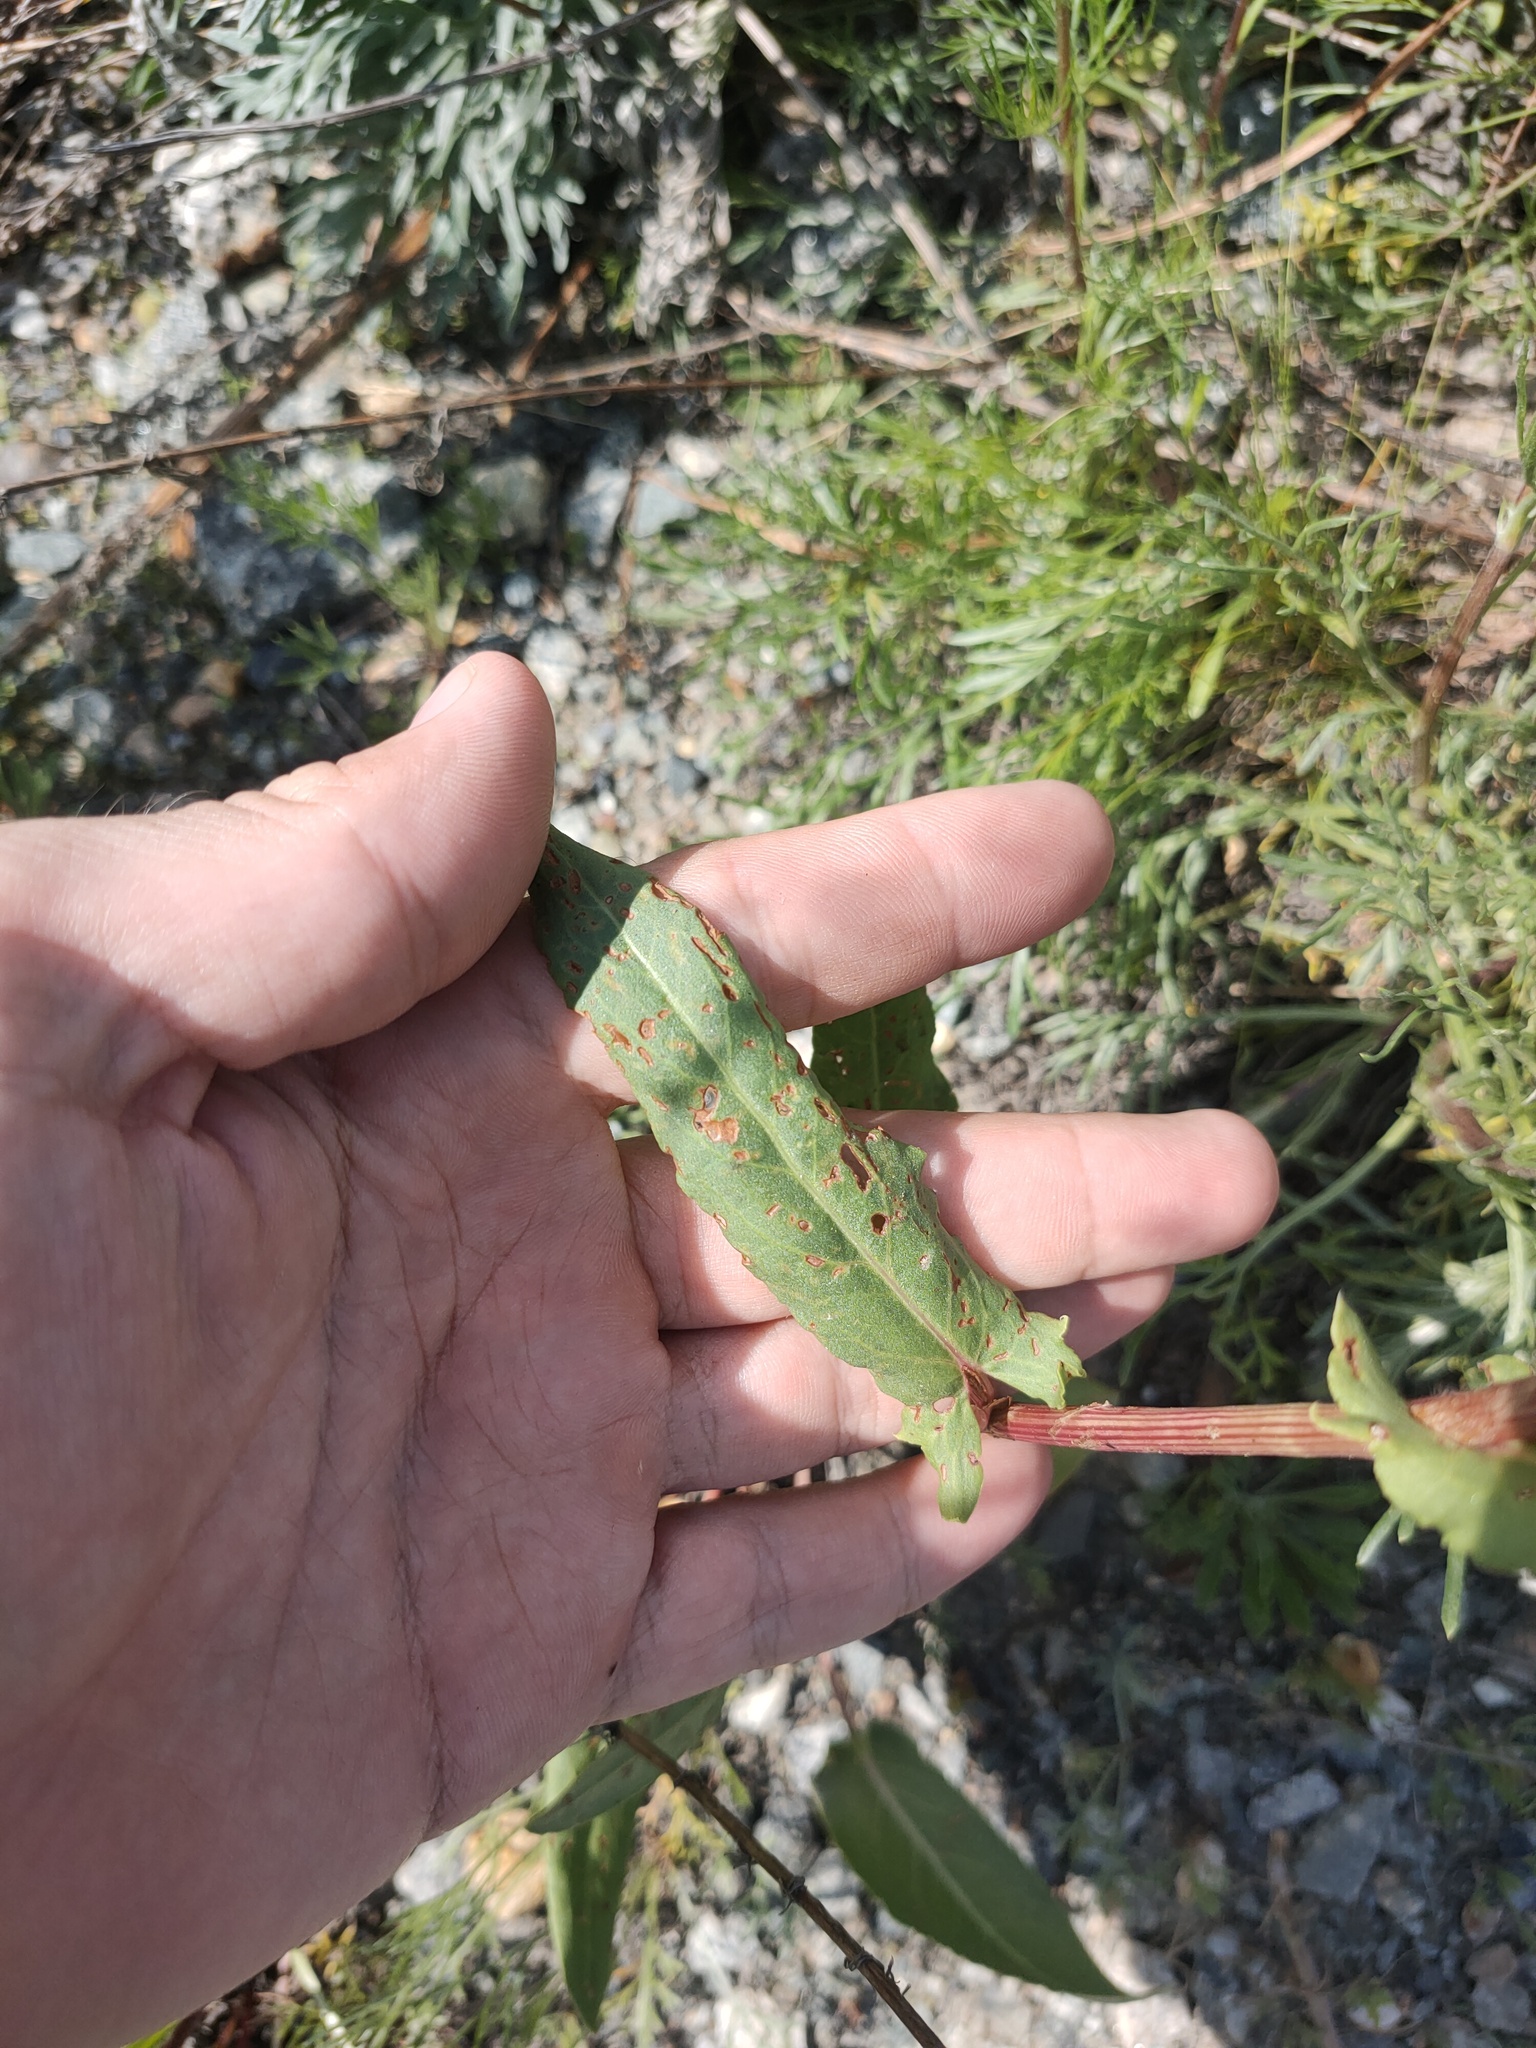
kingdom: Plantae
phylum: Tracheophyta
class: Magnoliopsida
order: Caryophyllales
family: Polygonaceae
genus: Rumex
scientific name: Rumex thyrsiflorus
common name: Garden sorrel
